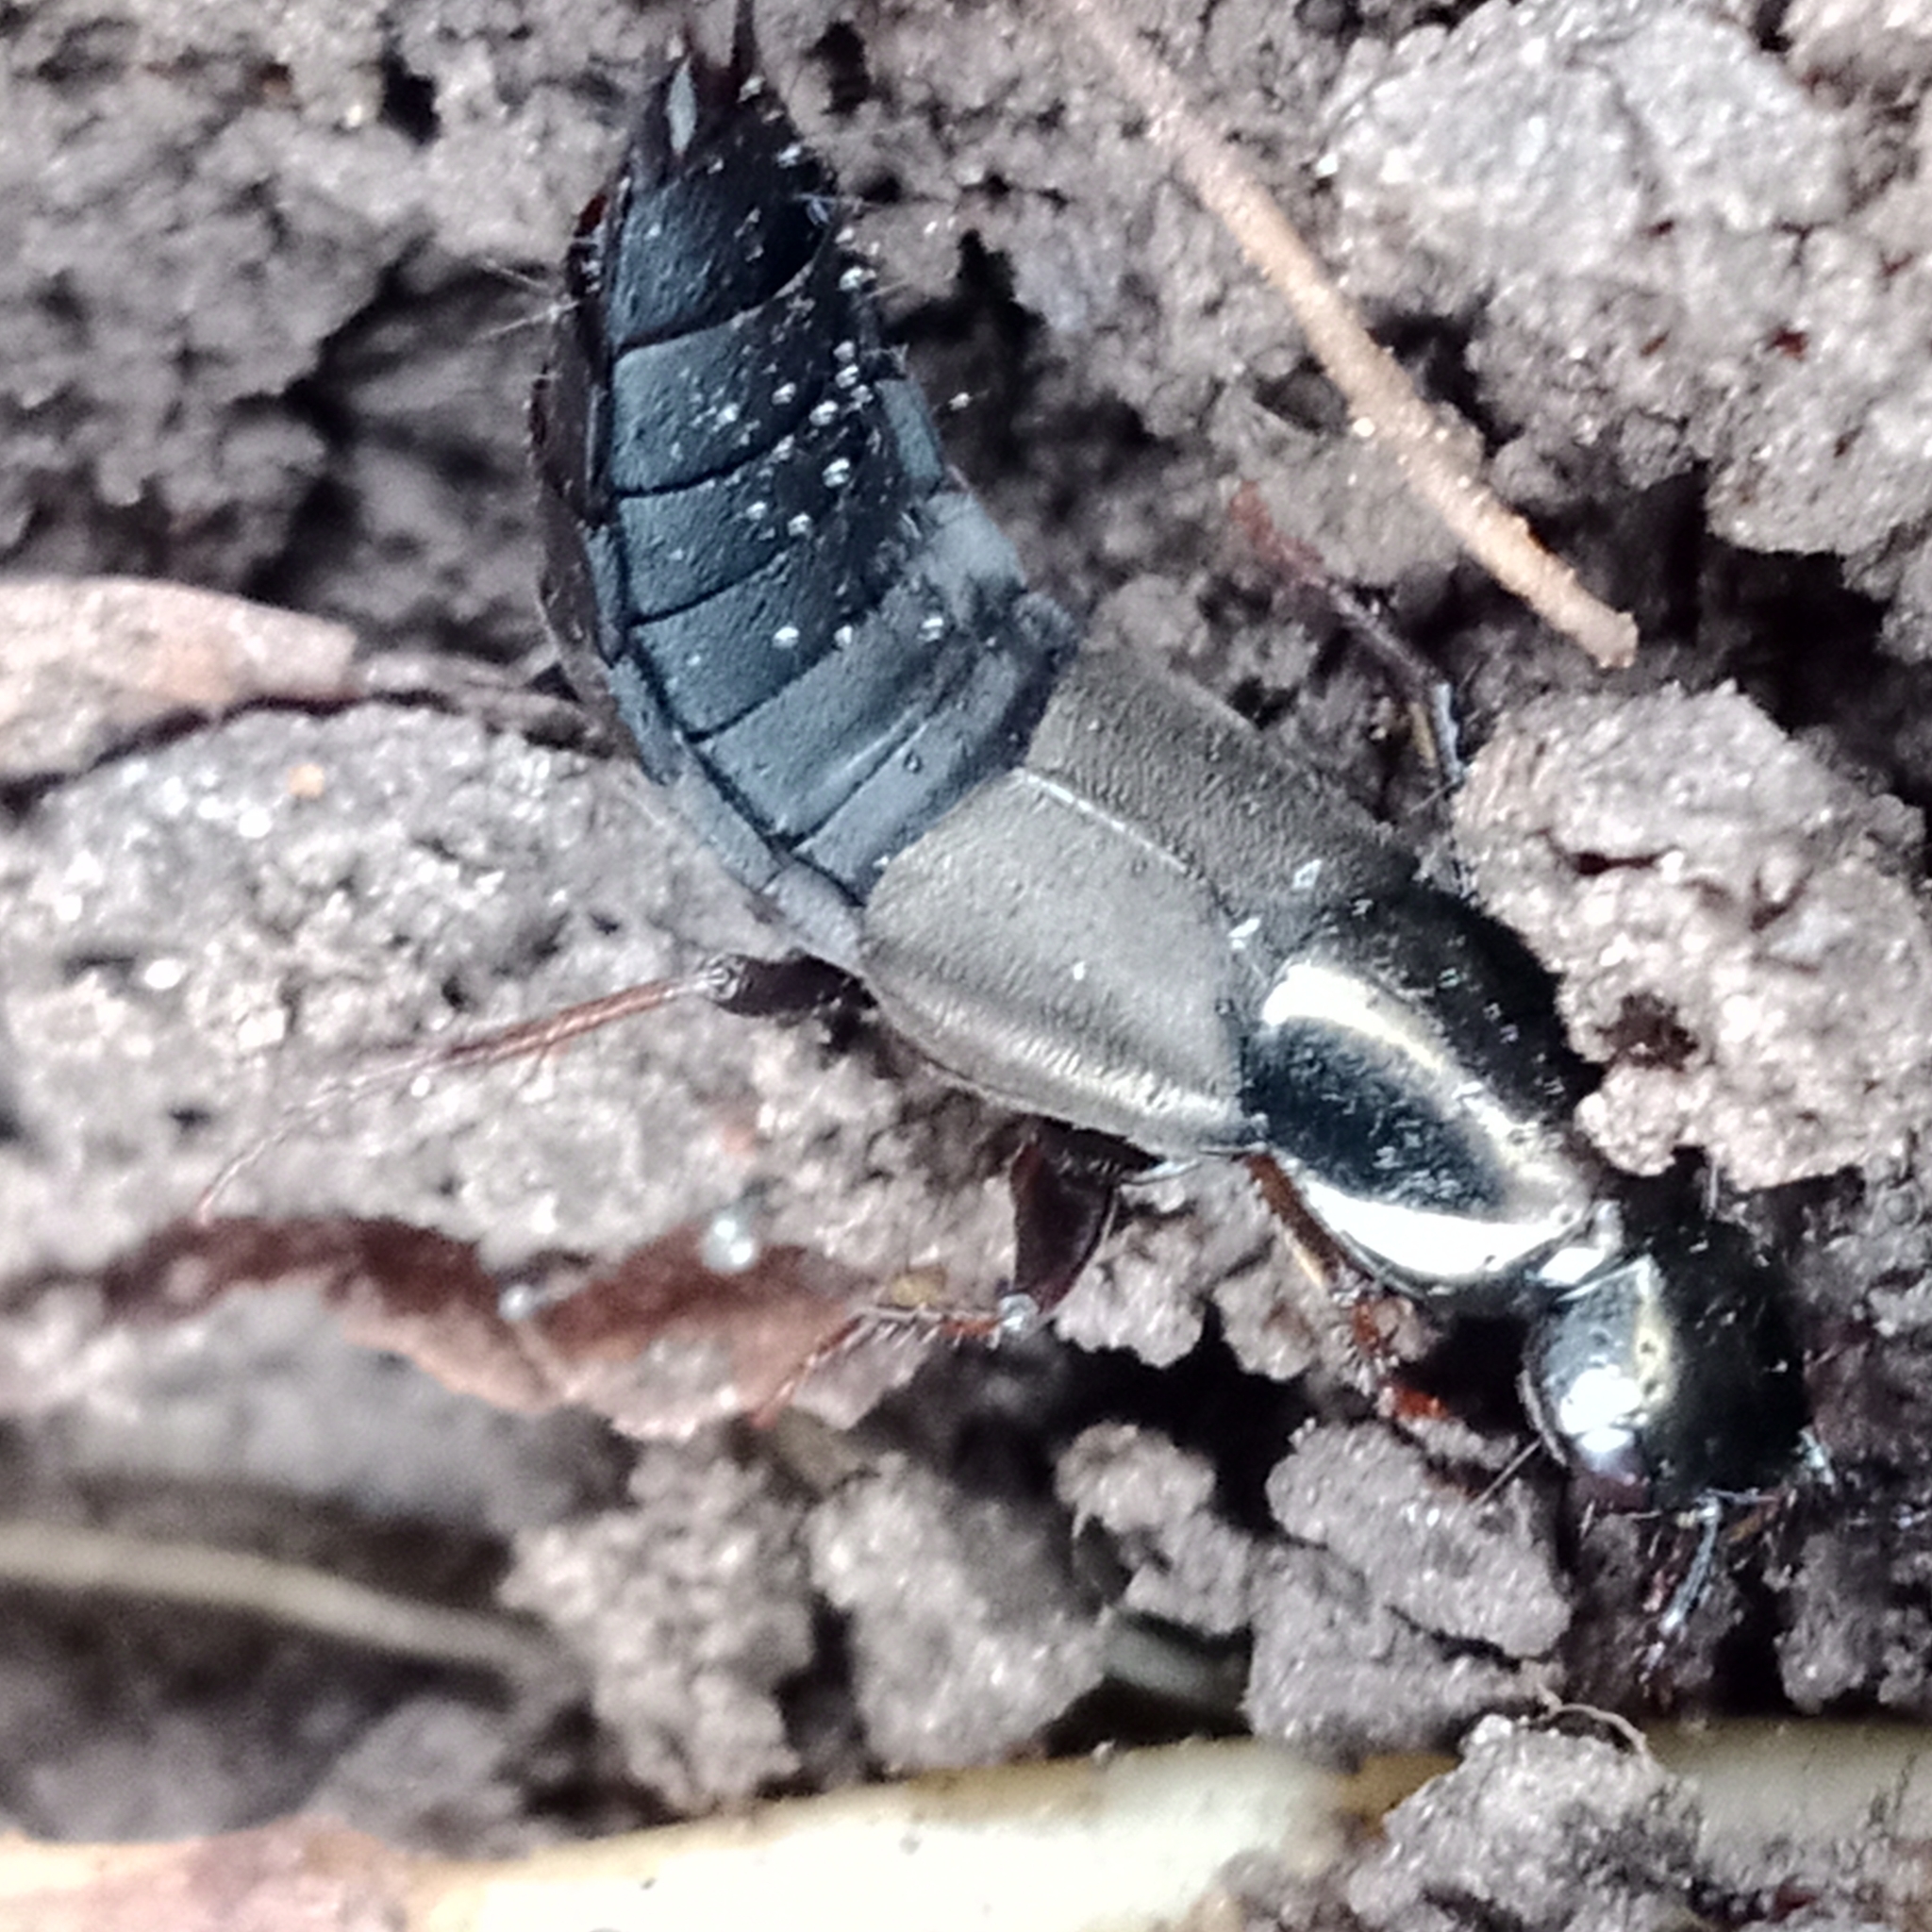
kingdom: Animalia
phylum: Arthropoda
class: Insecta
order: Coleoptera
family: Staphylinidae
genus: Philonthus
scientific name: Philonthus decorus
